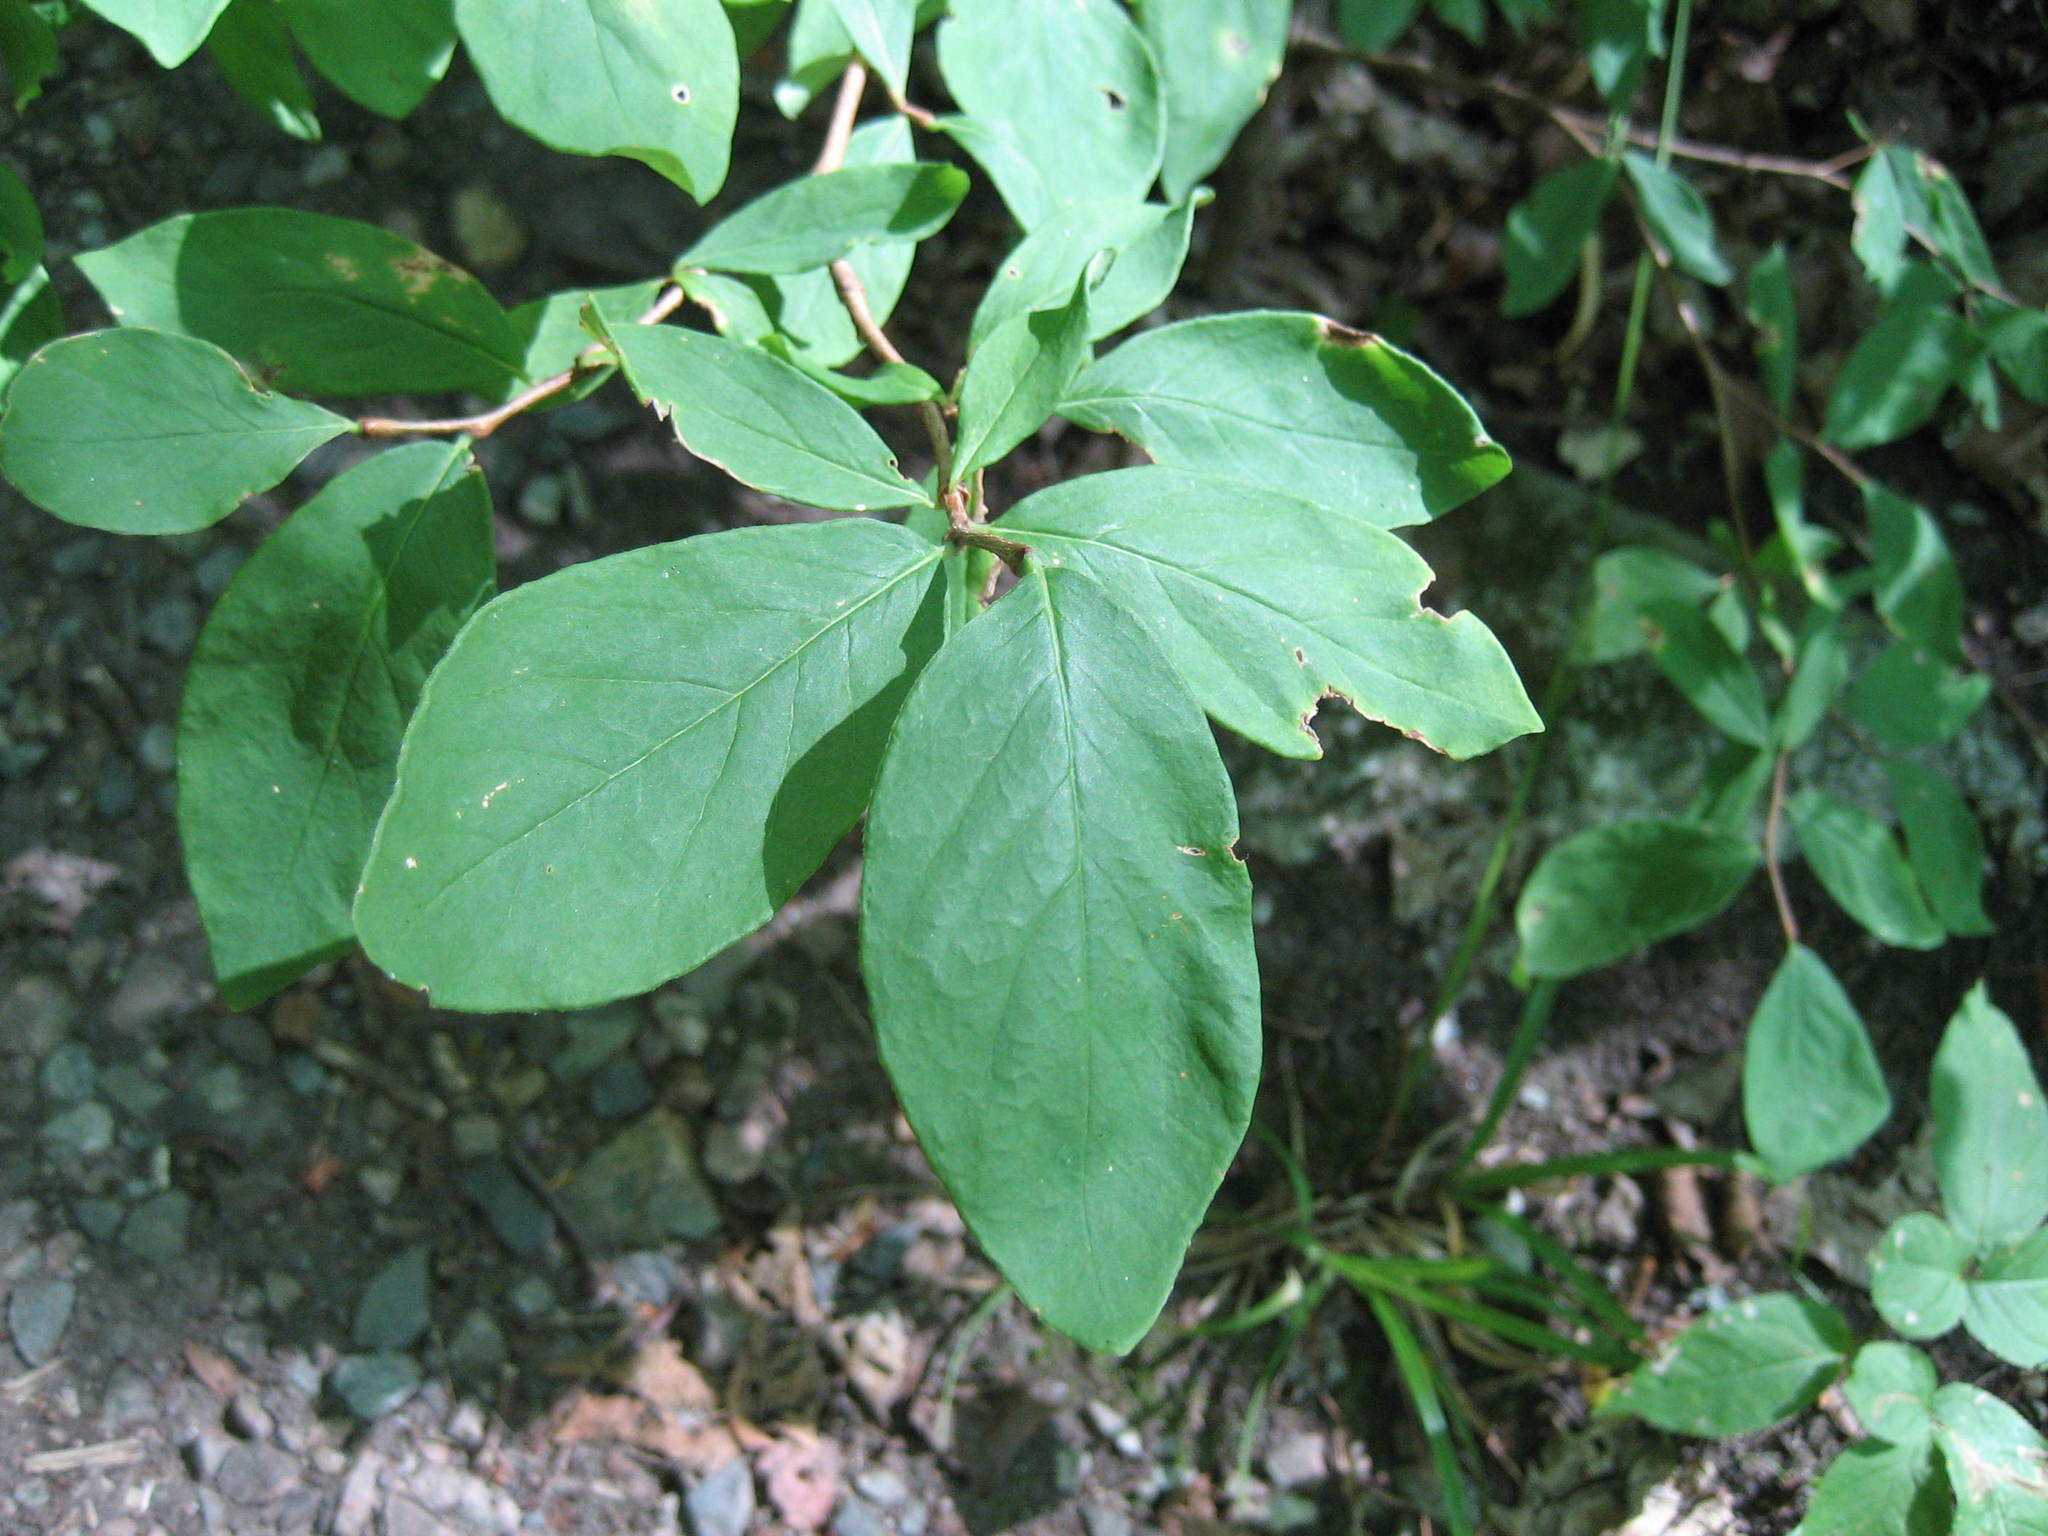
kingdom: Plantae
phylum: Tracheophyta
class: Magnoliopsida
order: Malvales
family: Thymelaeaceae
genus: Dirca
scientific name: Dirca palustris
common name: Leatherwood
